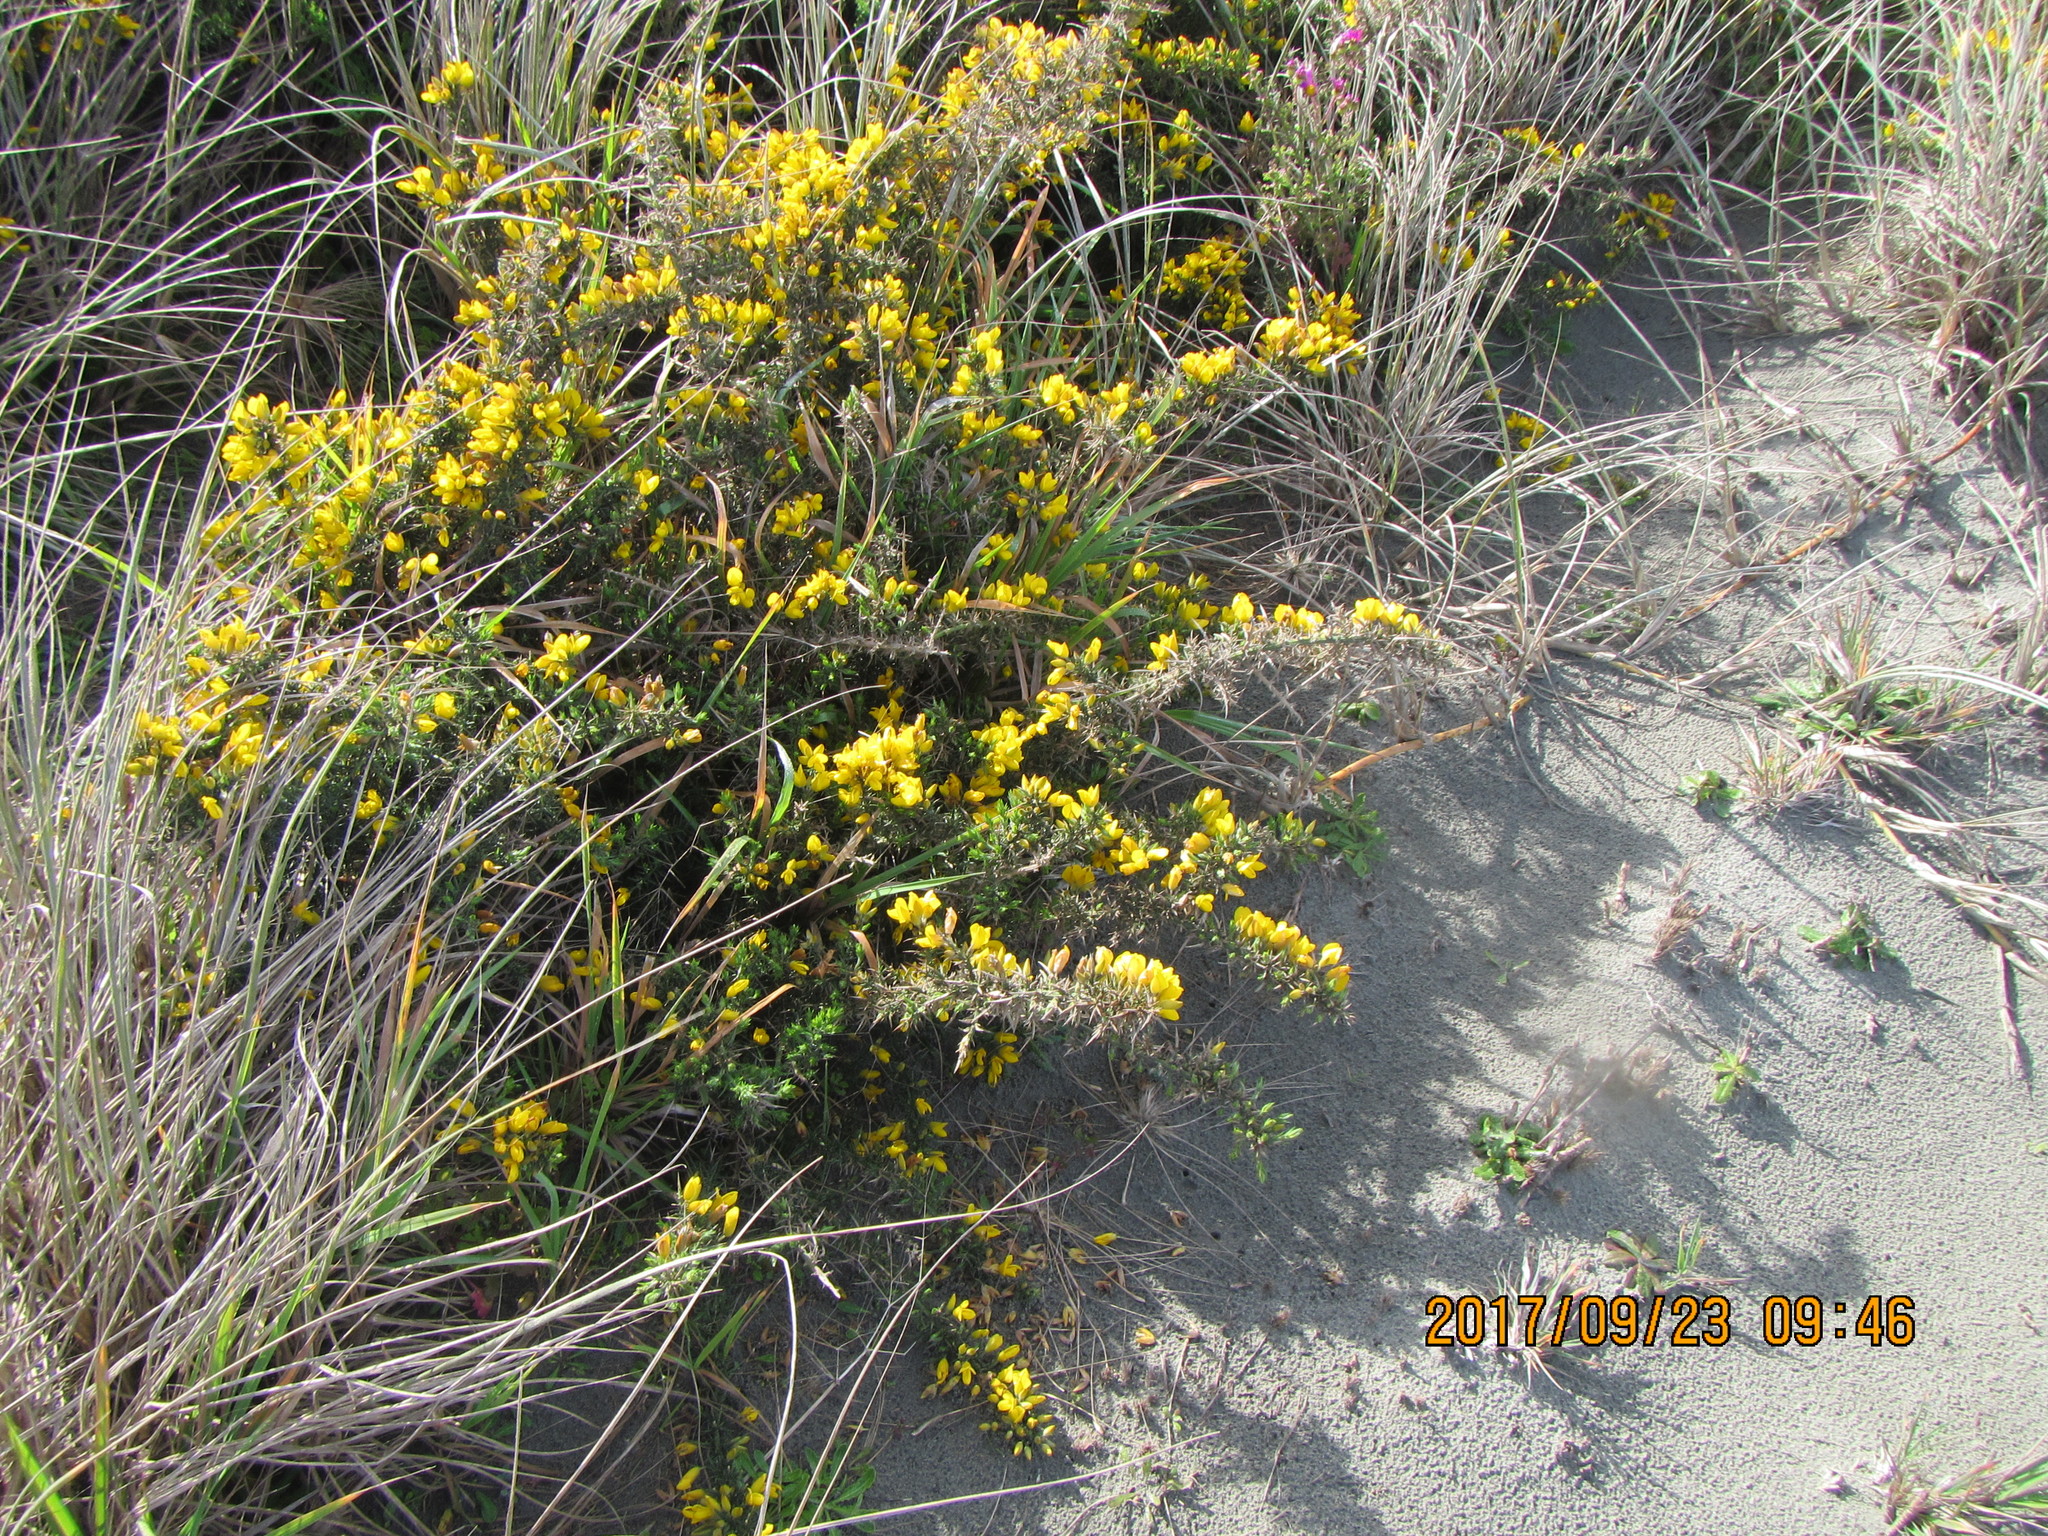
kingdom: Plantae
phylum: Tracheophyta
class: Magnoliopsida
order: Fabales
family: Fabaceae
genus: Ulex
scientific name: Ulex europaeus
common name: Common gorse
